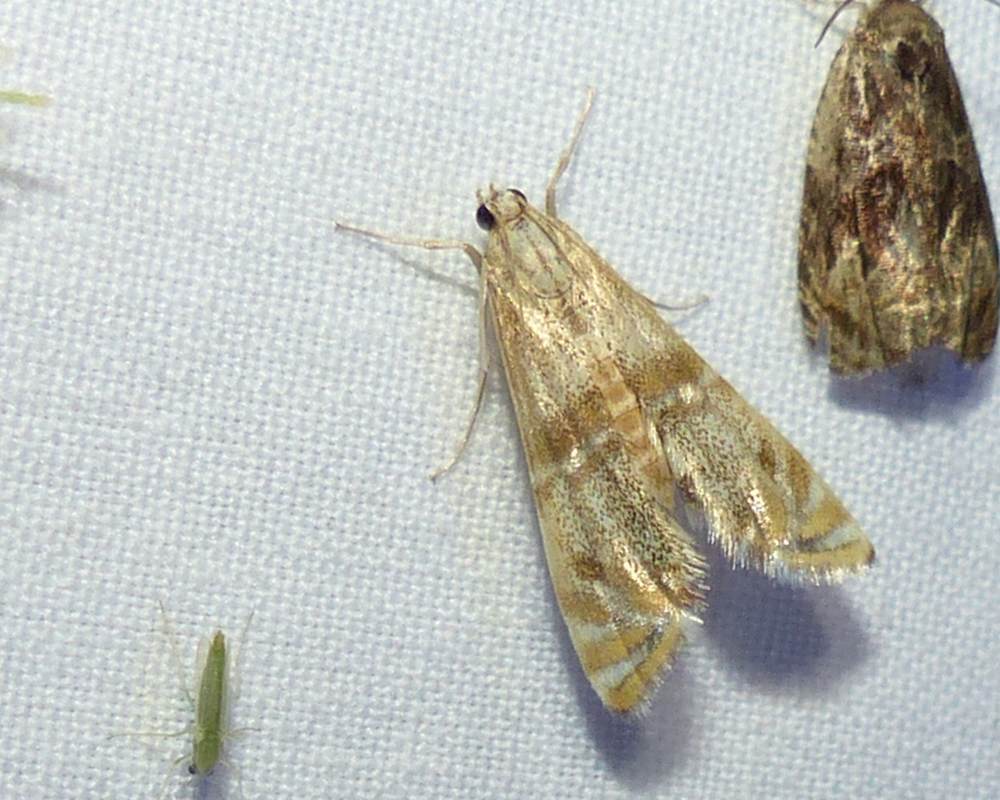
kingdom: Animalia
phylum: Arthropoda
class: Insecta
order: Lepidoptera
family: Crambidae
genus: Petrophila
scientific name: Petrophila bifascialis
